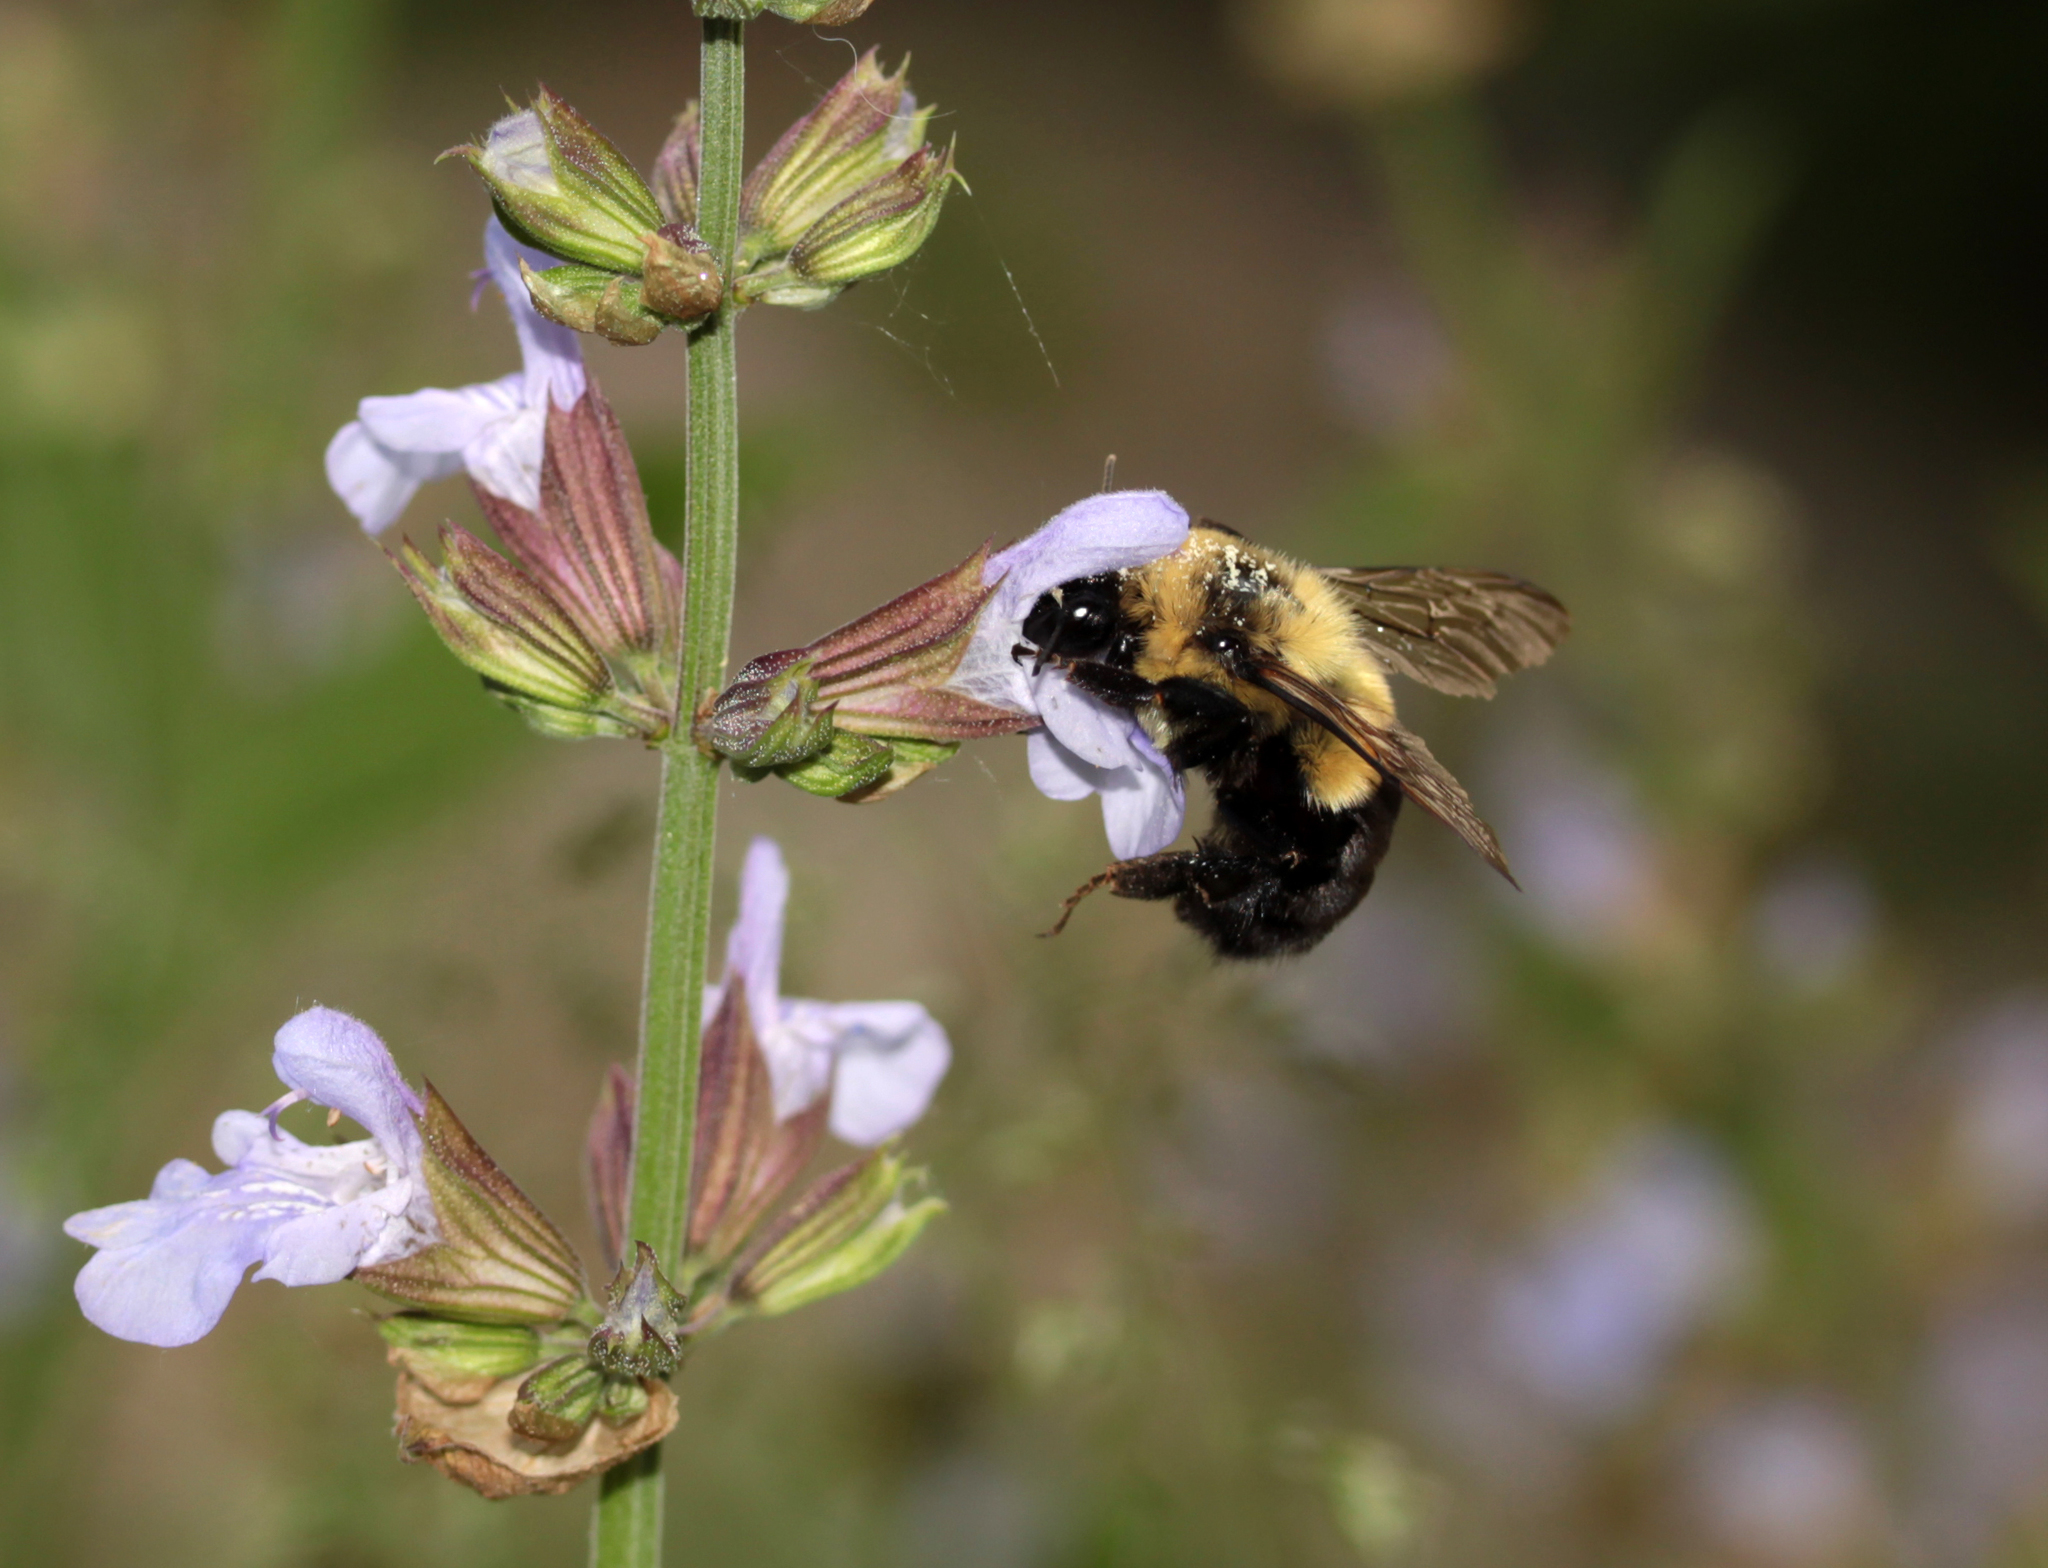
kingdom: Animalia
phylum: Arthropoda
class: Insecta
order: Hymenoptera
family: Apidae
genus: Bombus
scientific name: Bombus impatiens
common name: Common eastern bumble bee
